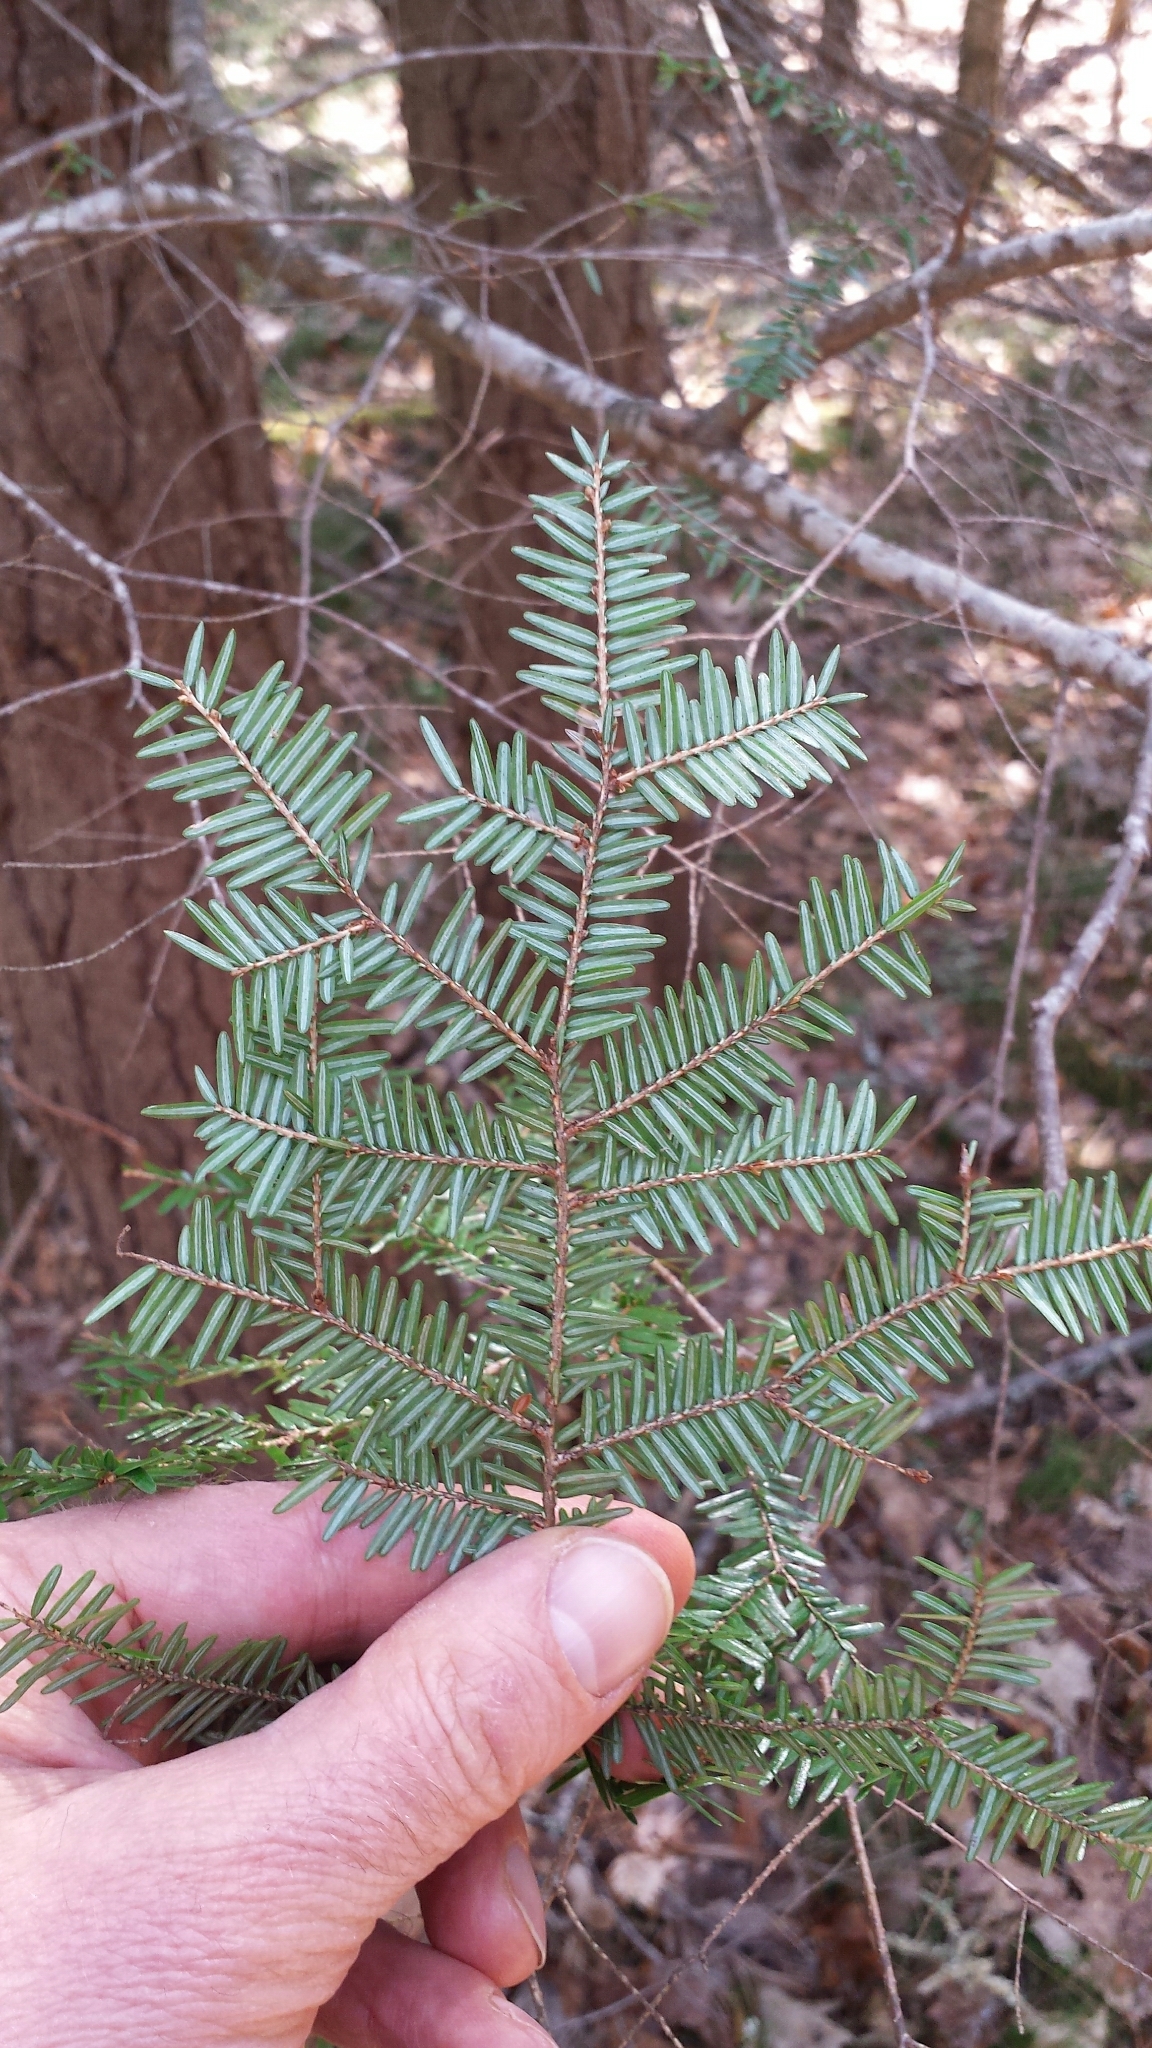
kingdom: Plantae
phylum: Tracheophyta
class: Pinopsida
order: Pinales
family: Pinaceae
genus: Tsuga
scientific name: Tsuga canadensis
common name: Eastern hemlock
